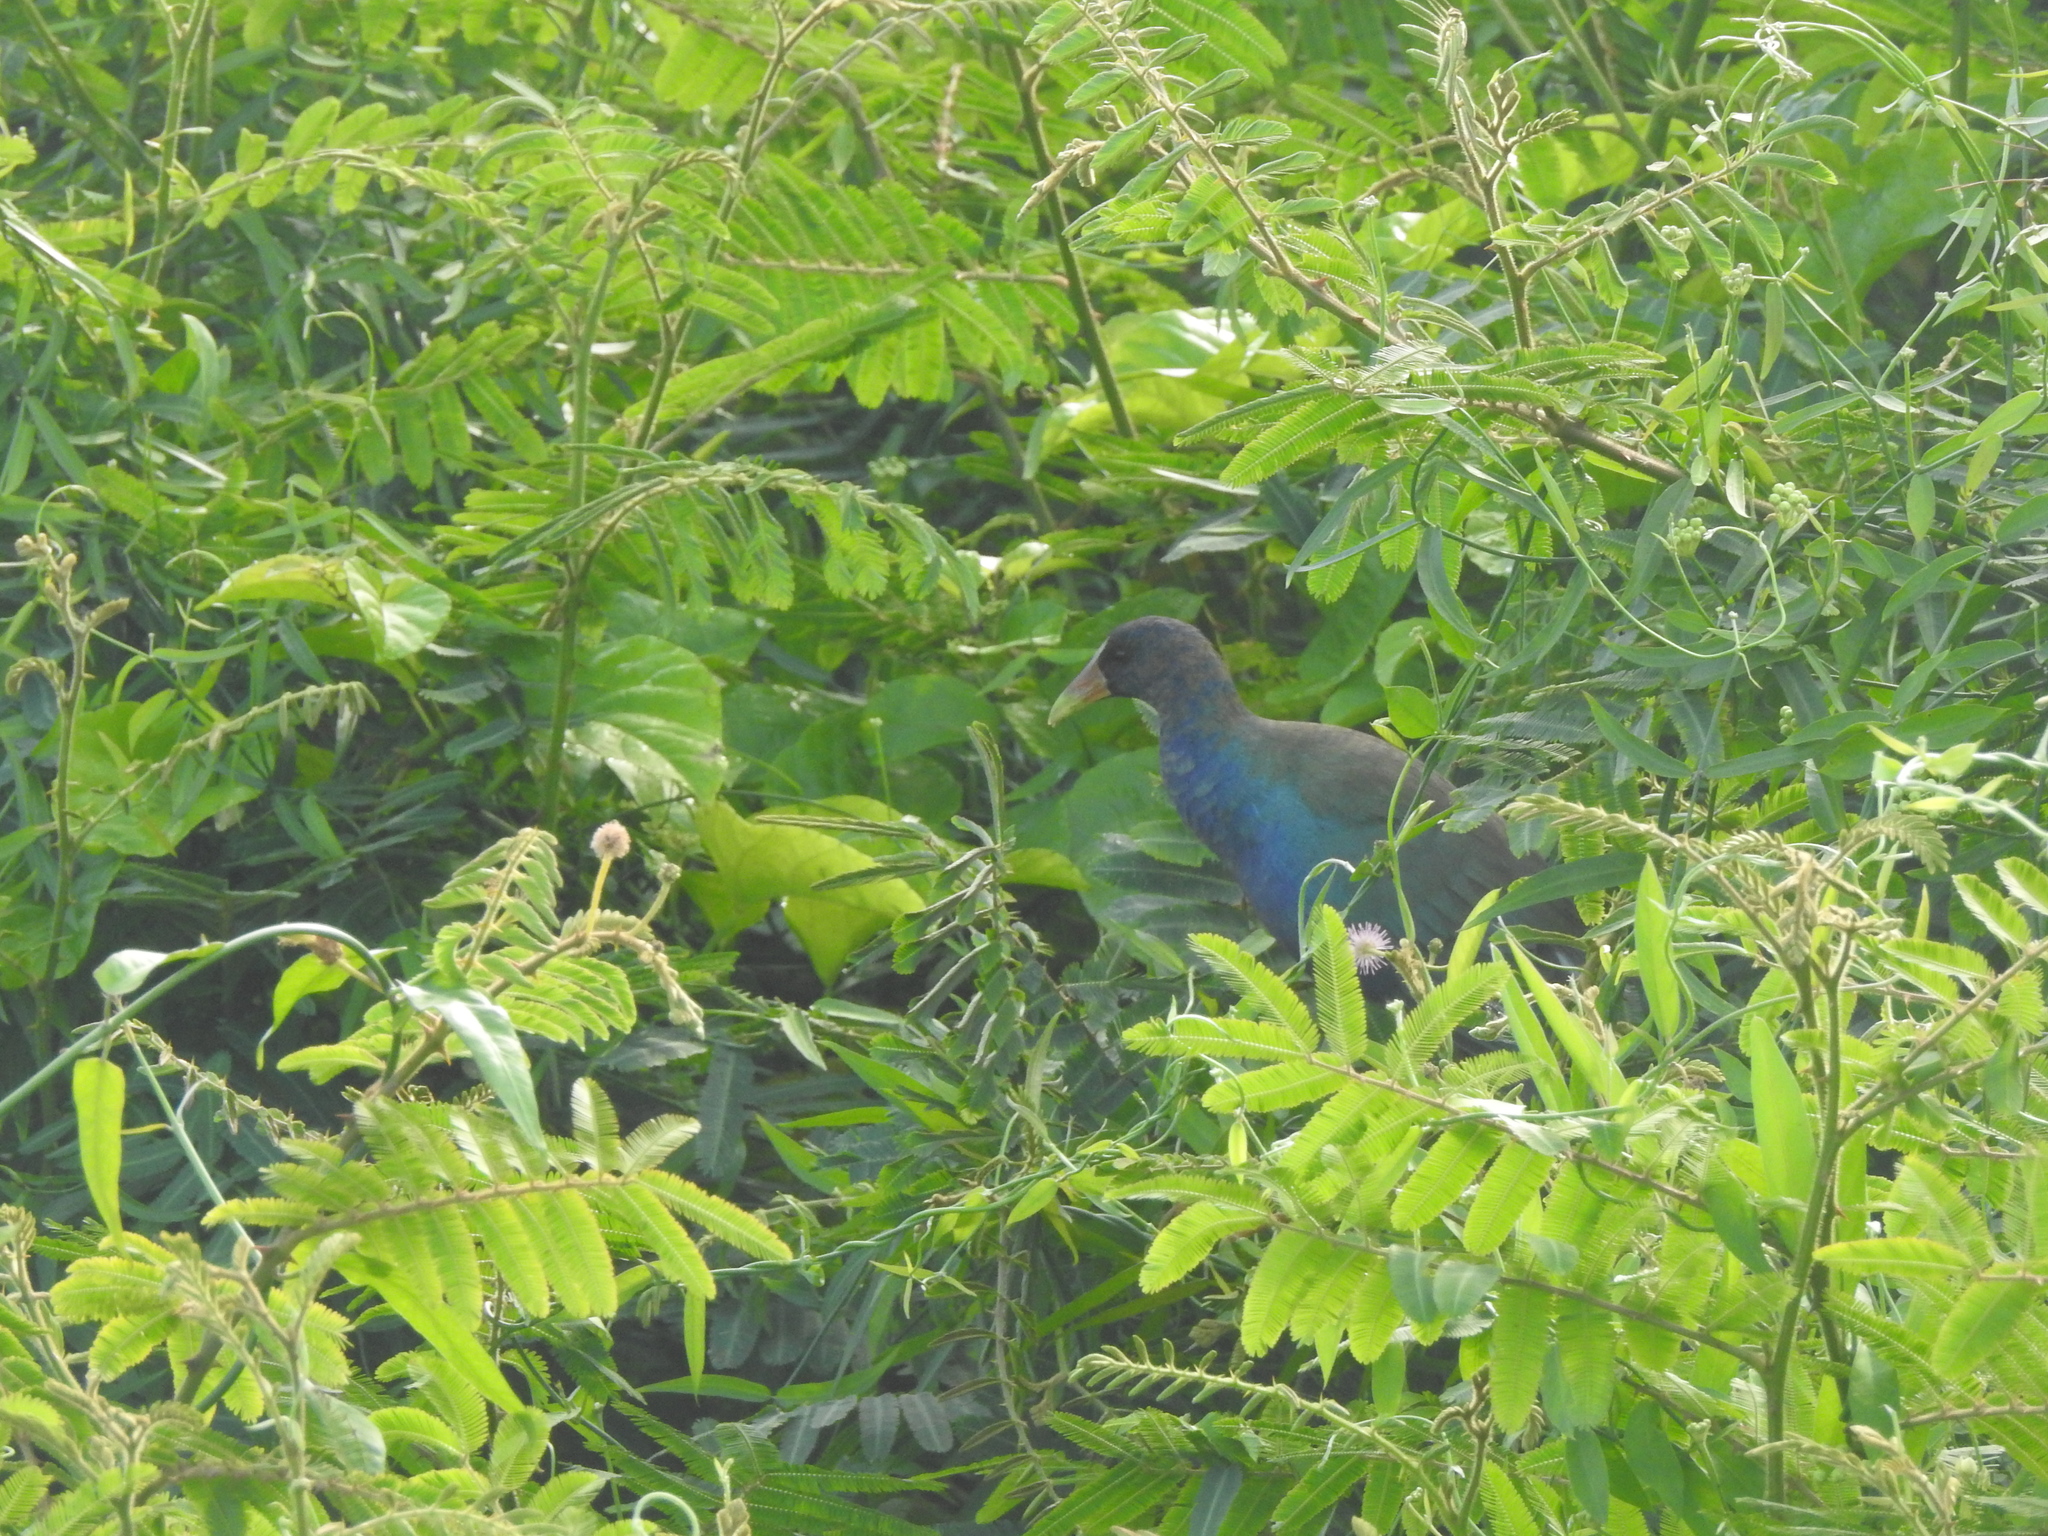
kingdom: Animalia
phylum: Chordata
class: Aves
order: Gruiformes
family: Rallidae
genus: Porphyrio
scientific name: Porphyrio martinica
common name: Purple gallinule
